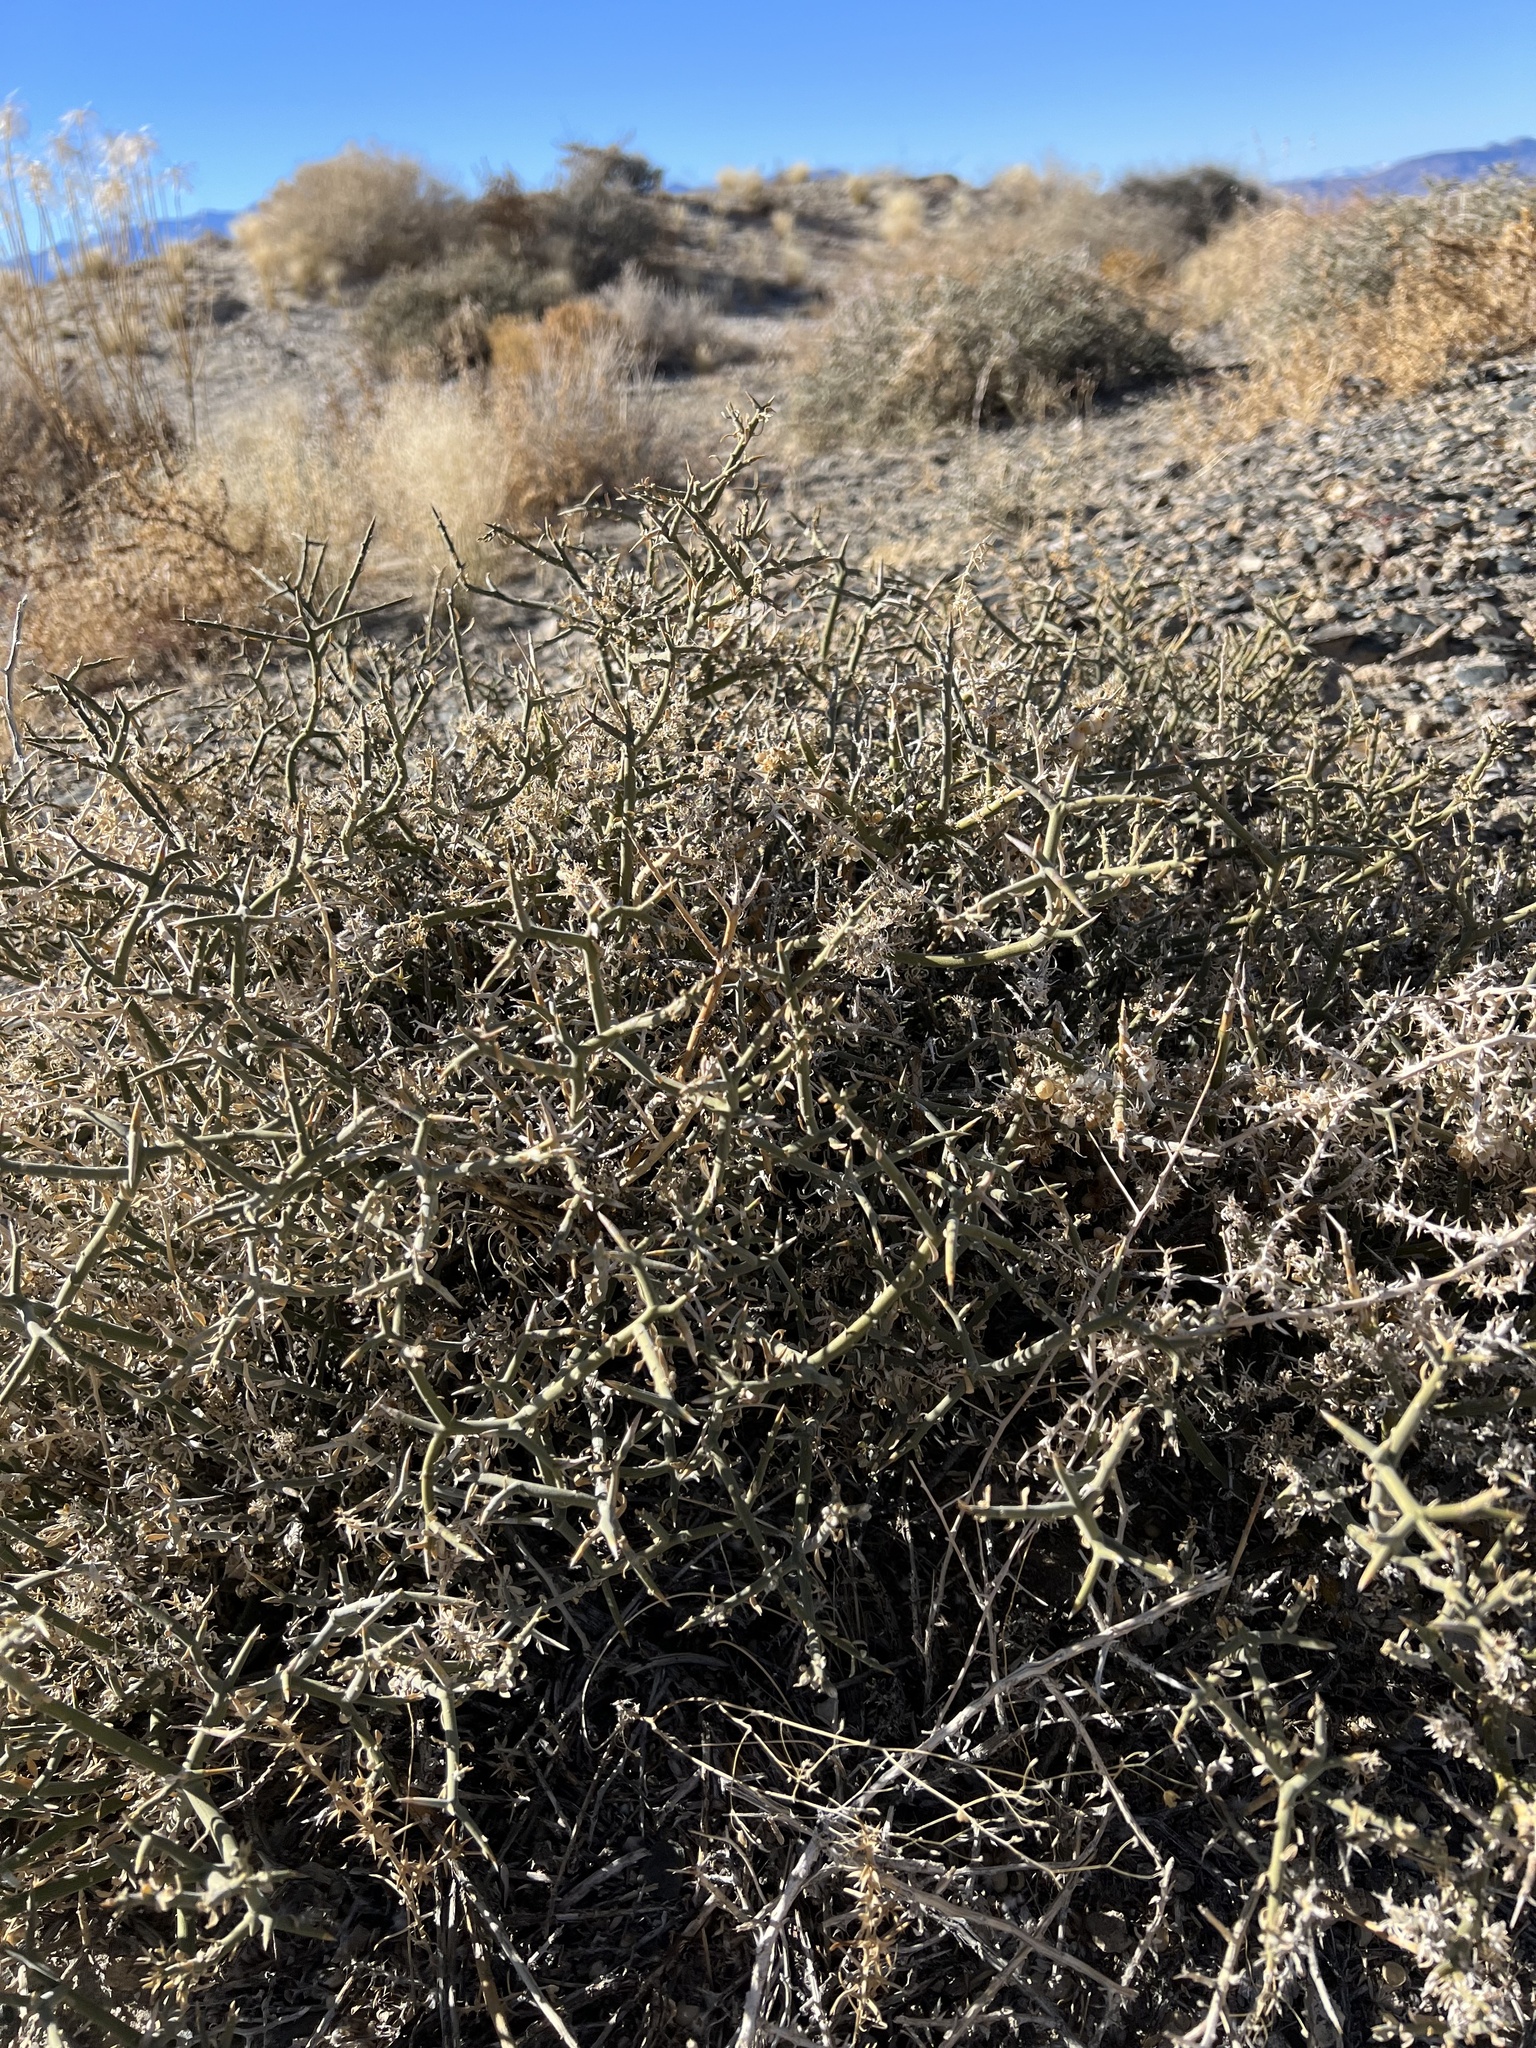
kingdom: Plantae
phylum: Tracheophyta
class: Magnoliopsida
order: Lamiales
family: Oleaceae
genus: Menodora
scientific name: Menodora spinescens
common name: Spiny menodora
